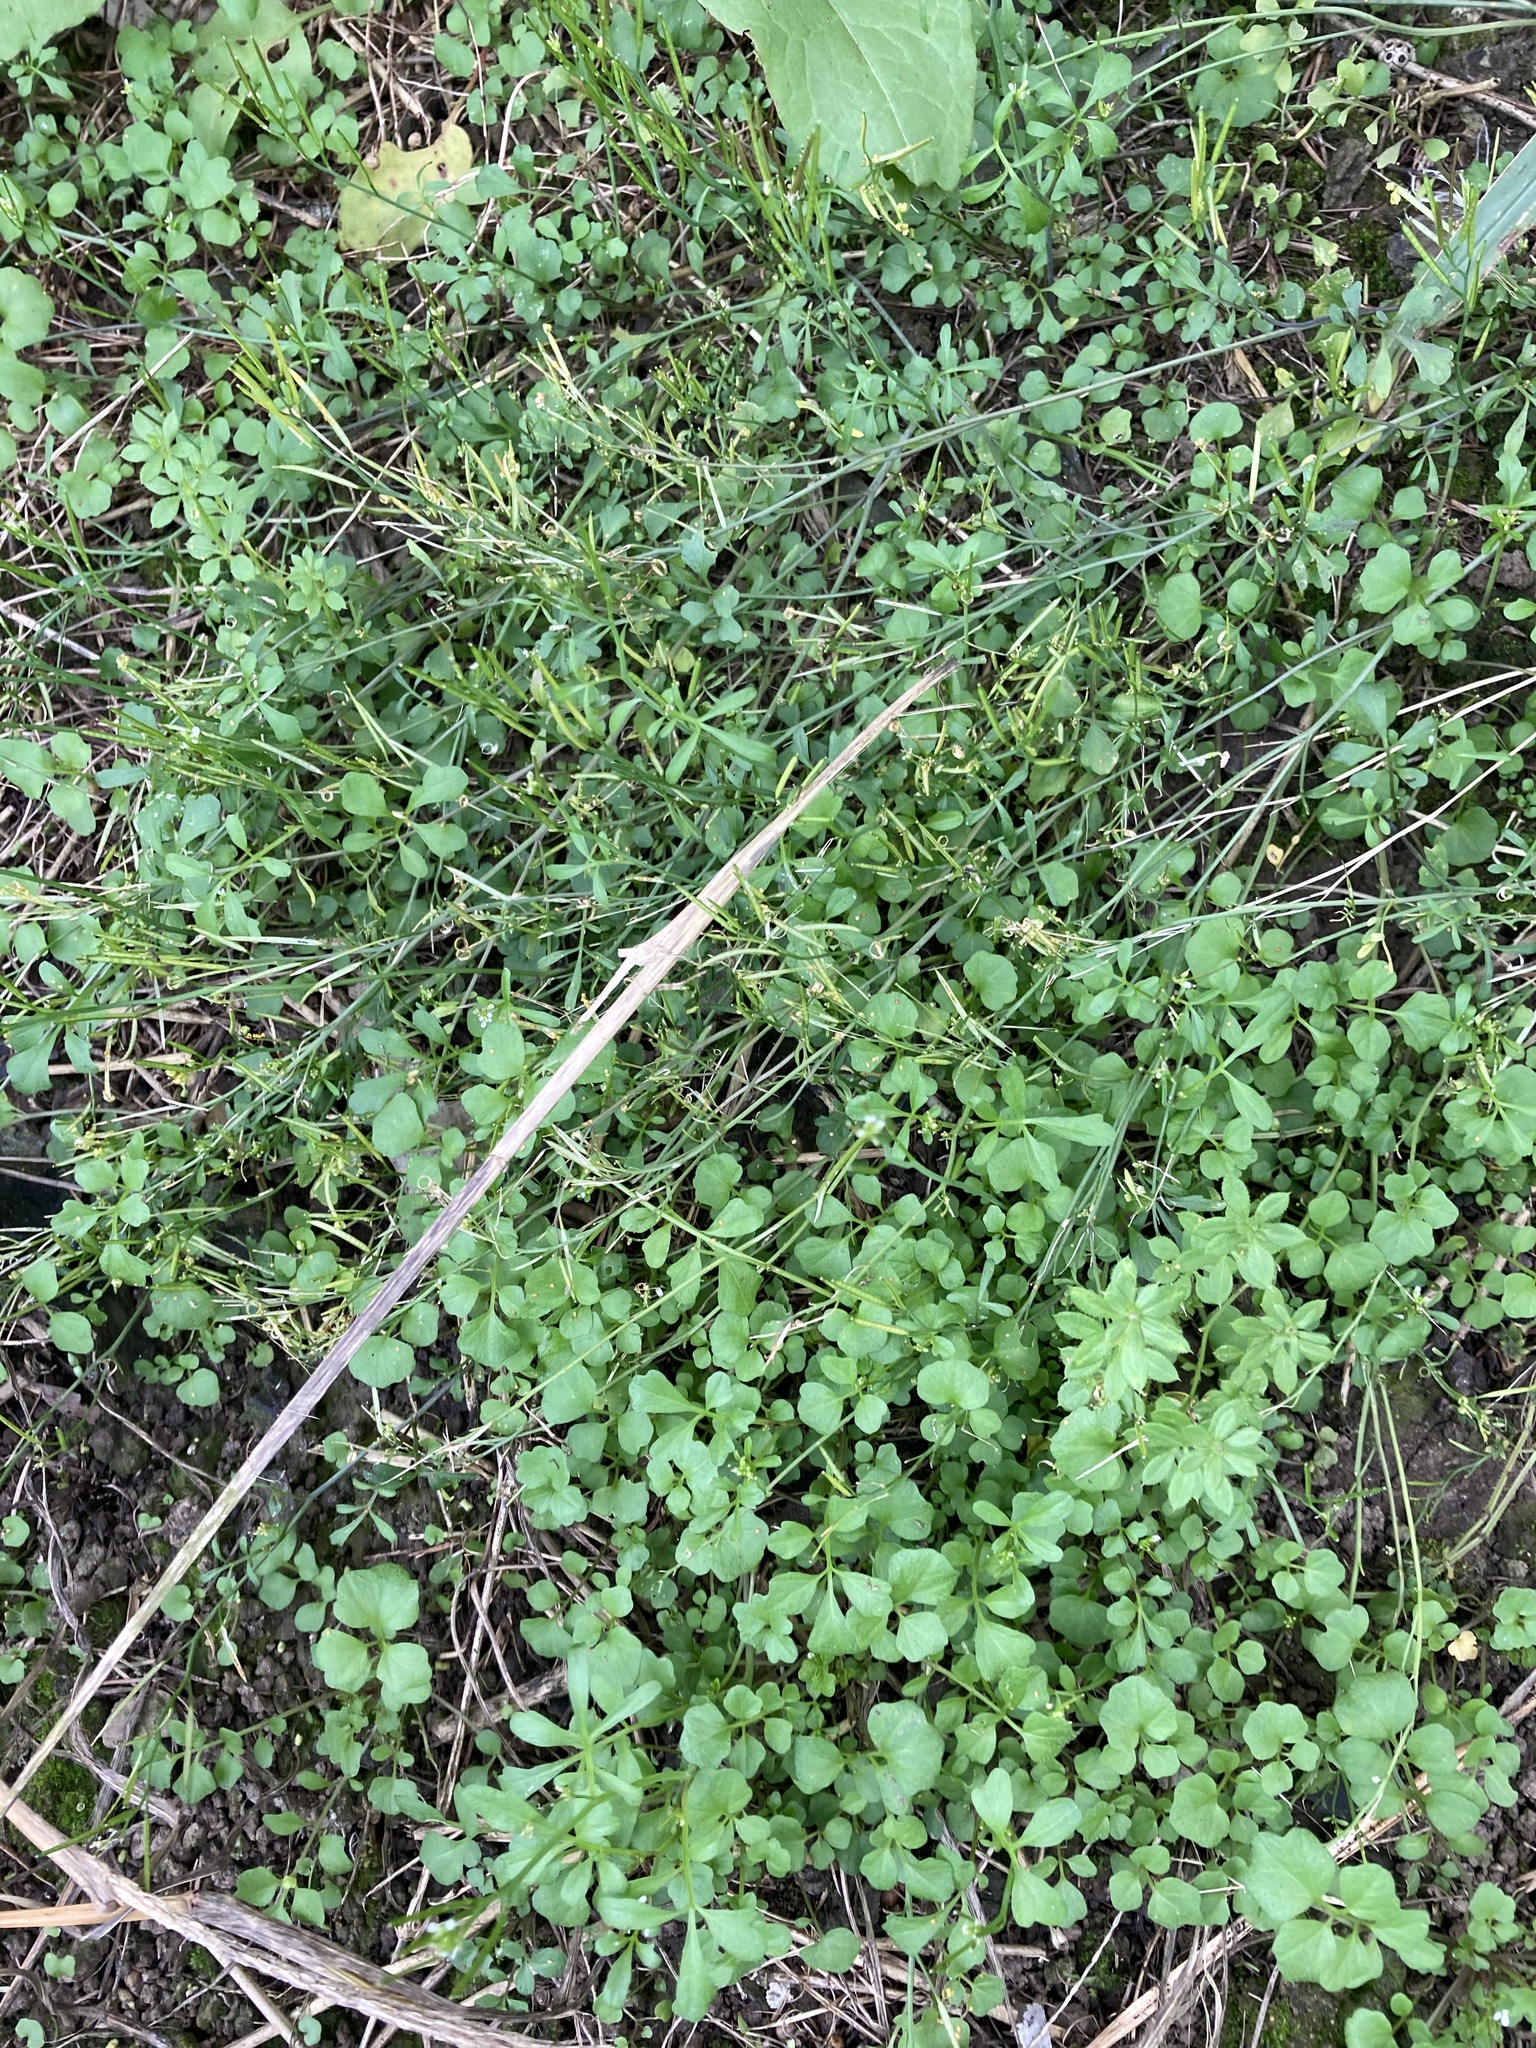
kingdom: Plantae
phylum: Tracheophyta
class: Magnoliopsida
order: Brassicales
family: Brassicaceae
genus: Cardamine
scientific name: Cardamine hirsuta
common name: Hairy bittercress
